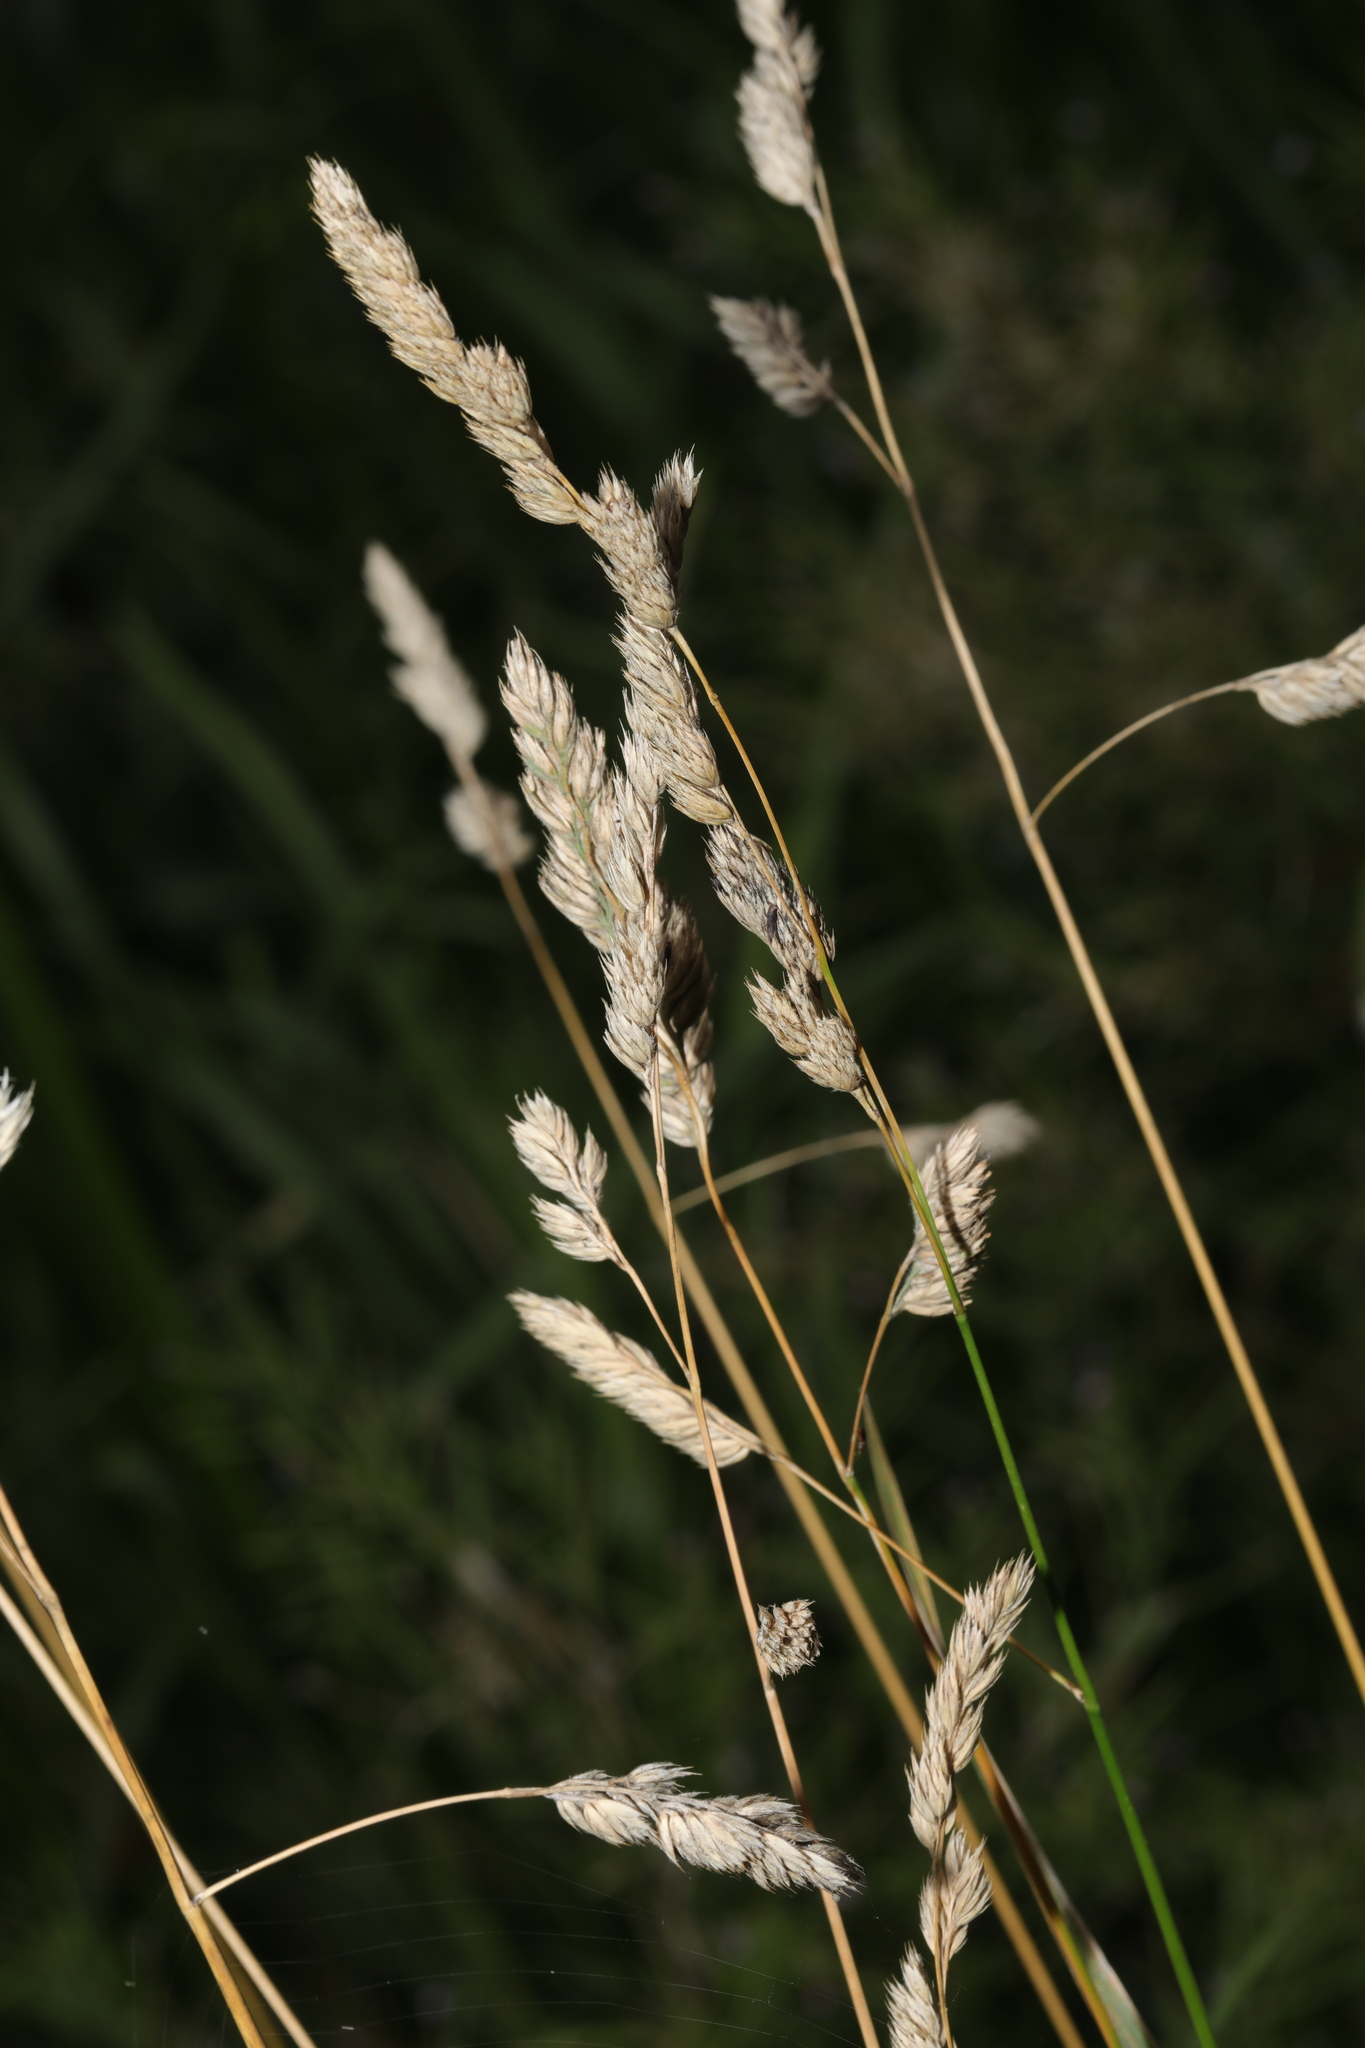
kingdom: Plantae
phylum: Tracheophyta
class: Liliopsida
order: Poales
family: Poaceae
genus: Dactylis
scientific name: Dactylis glomerata
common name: Orchardgrass
